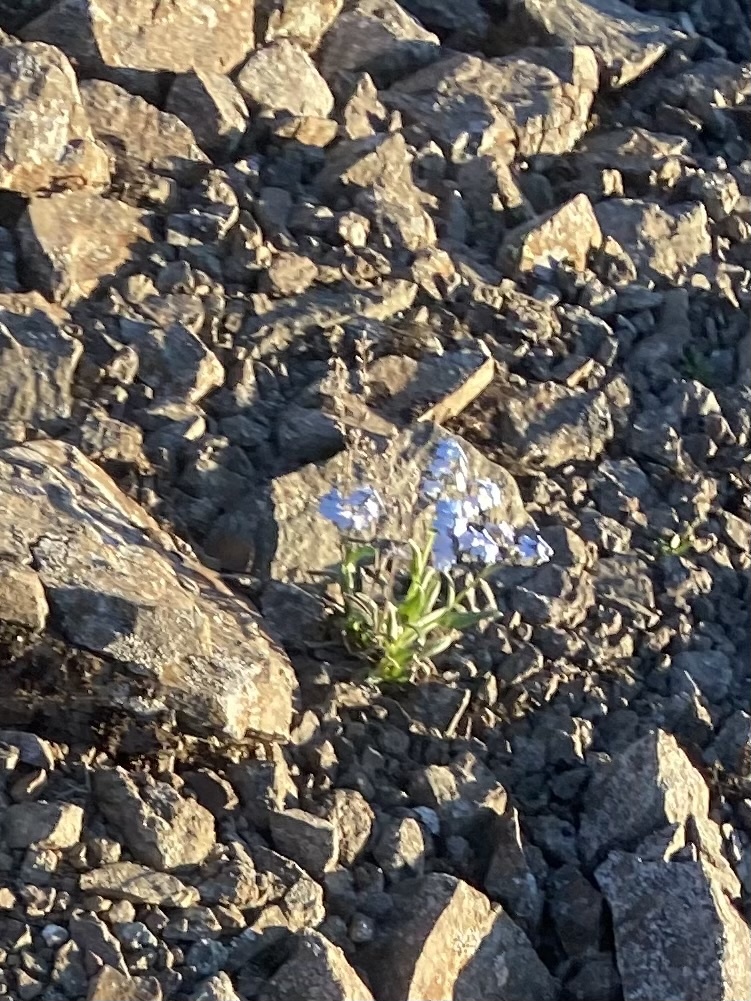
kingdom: Plantae
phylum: Tracheophyta
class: Magnoliopsida
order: Boraginales
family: Boraginaceae
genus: Myosotis
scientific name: Myosotis asiatica
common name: Asian forget-me-not
